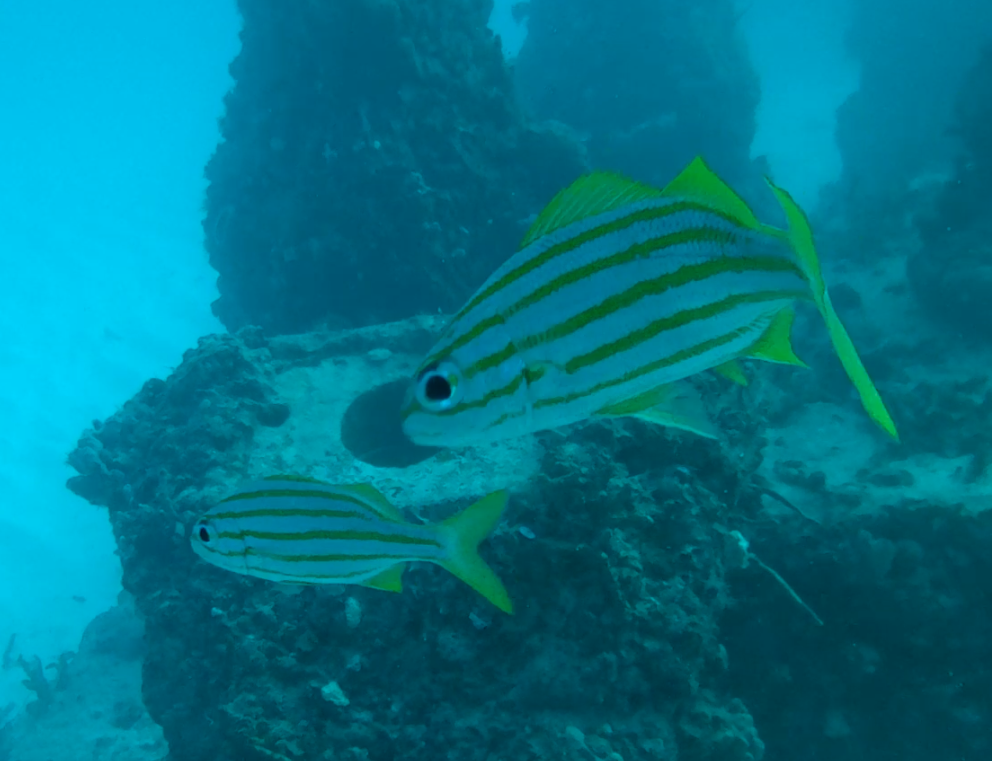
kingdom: Animalia
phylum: Chordata
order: Perciformes
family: Haemulidae
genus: Haemulon
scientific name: Haemulon chrysargyreum
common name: Smallmouth grunt
